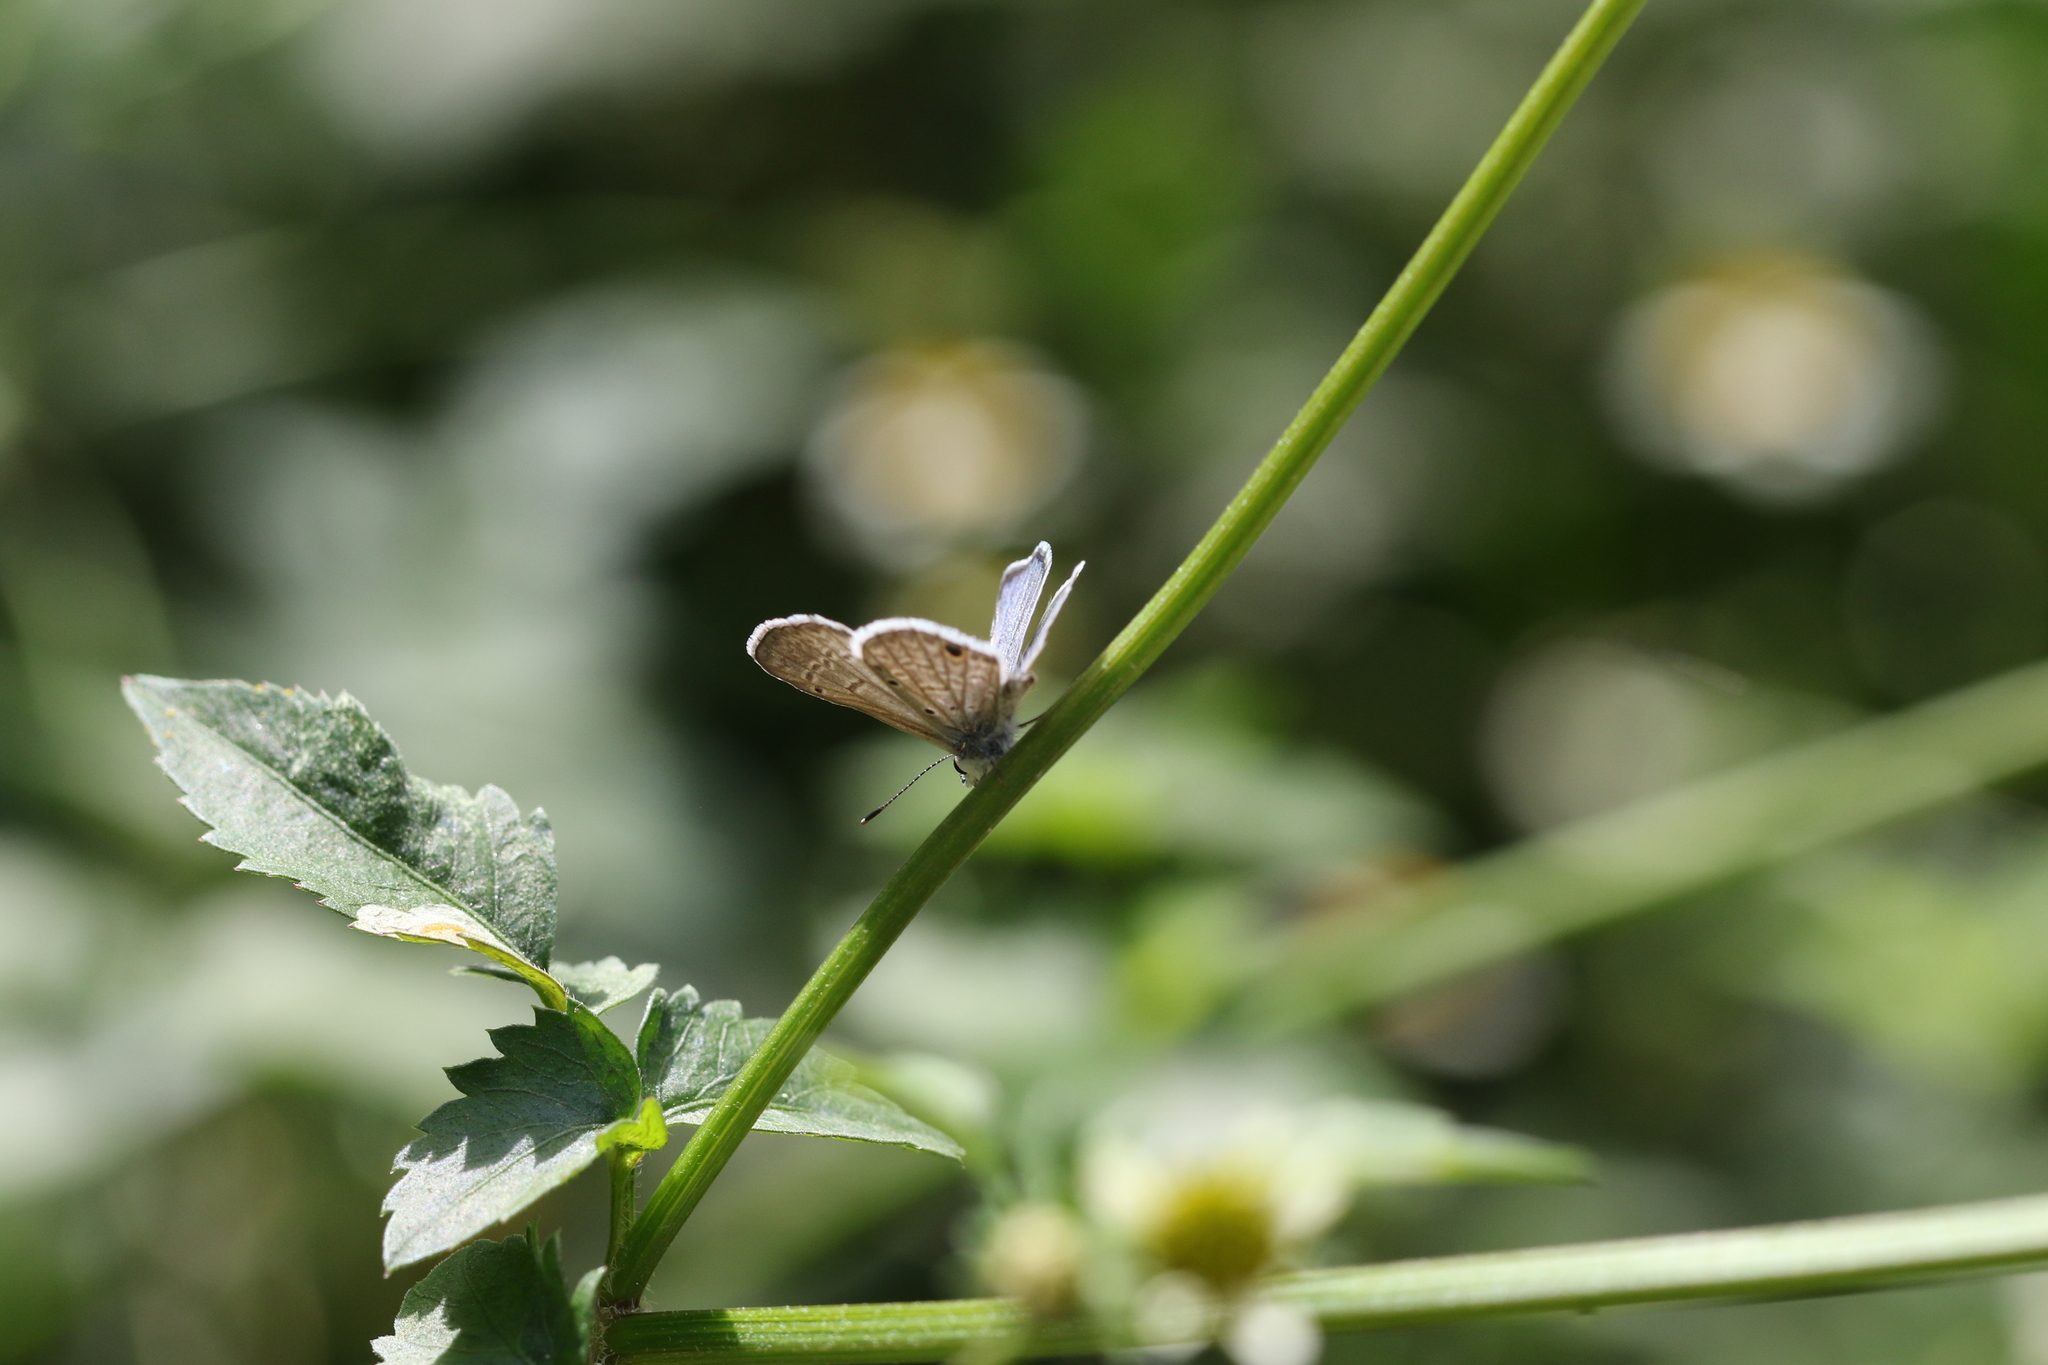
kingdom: Animalia
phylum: Arthropoda
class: Insecta
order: Lepidoptera
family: Lycaenidae
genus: Hemiargus
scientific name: Hemiargus hanno
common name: Common blue
